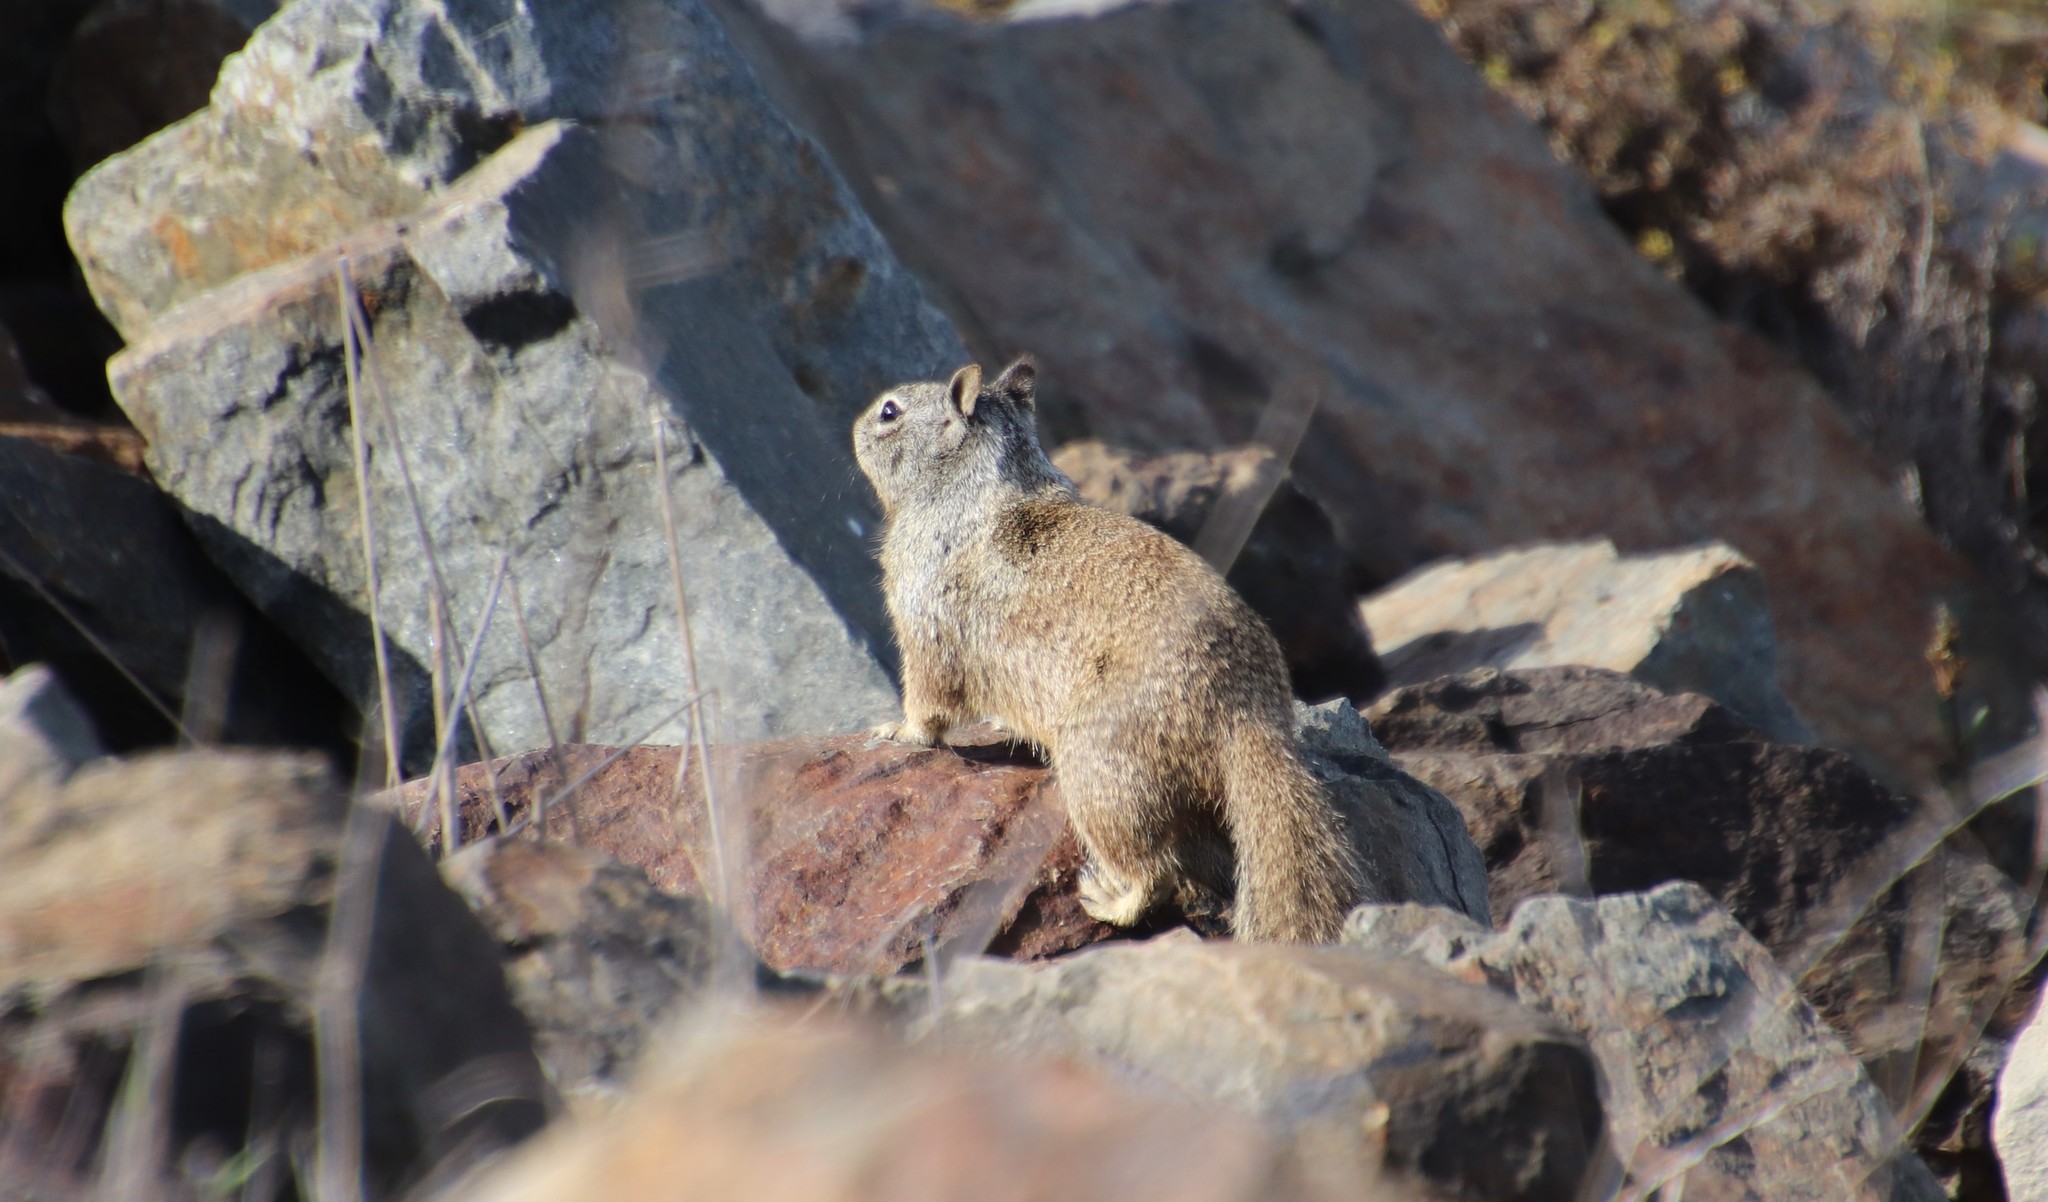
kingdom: Animalia
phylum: Chordata
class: Mammalia
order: Rodentia
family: Sciuridae
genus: Otospermophilus
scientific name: Otospermophilus beecheyi
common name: California ground squirrel
